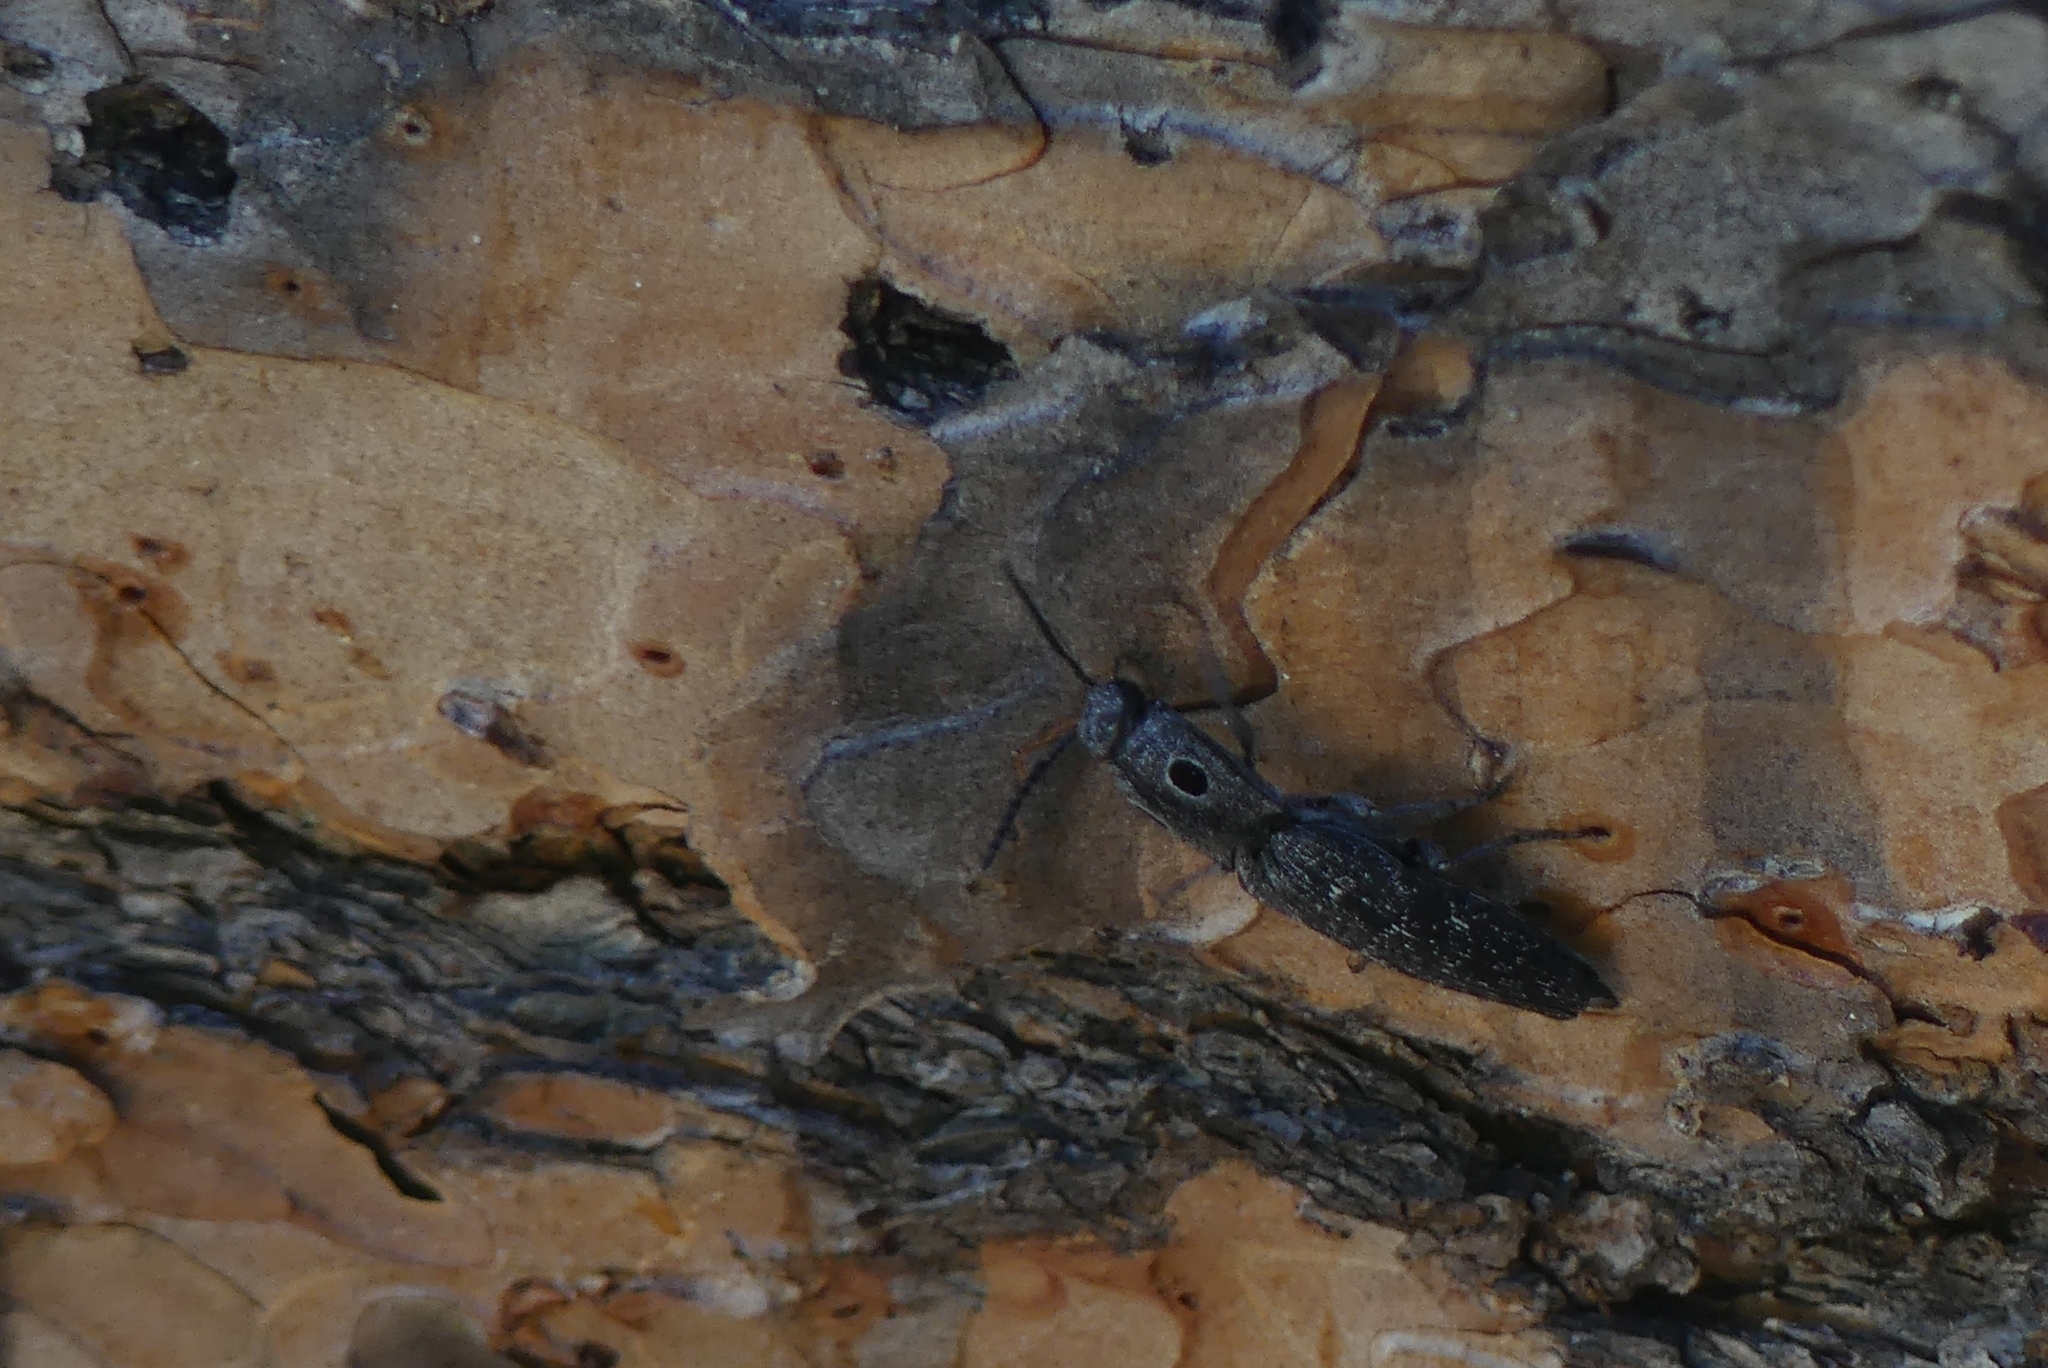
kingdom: Animalia
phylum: Arthropoda
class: Insecta
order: Coleoptera
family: Elateridae
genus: Alaus
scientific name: Alaus melanops
